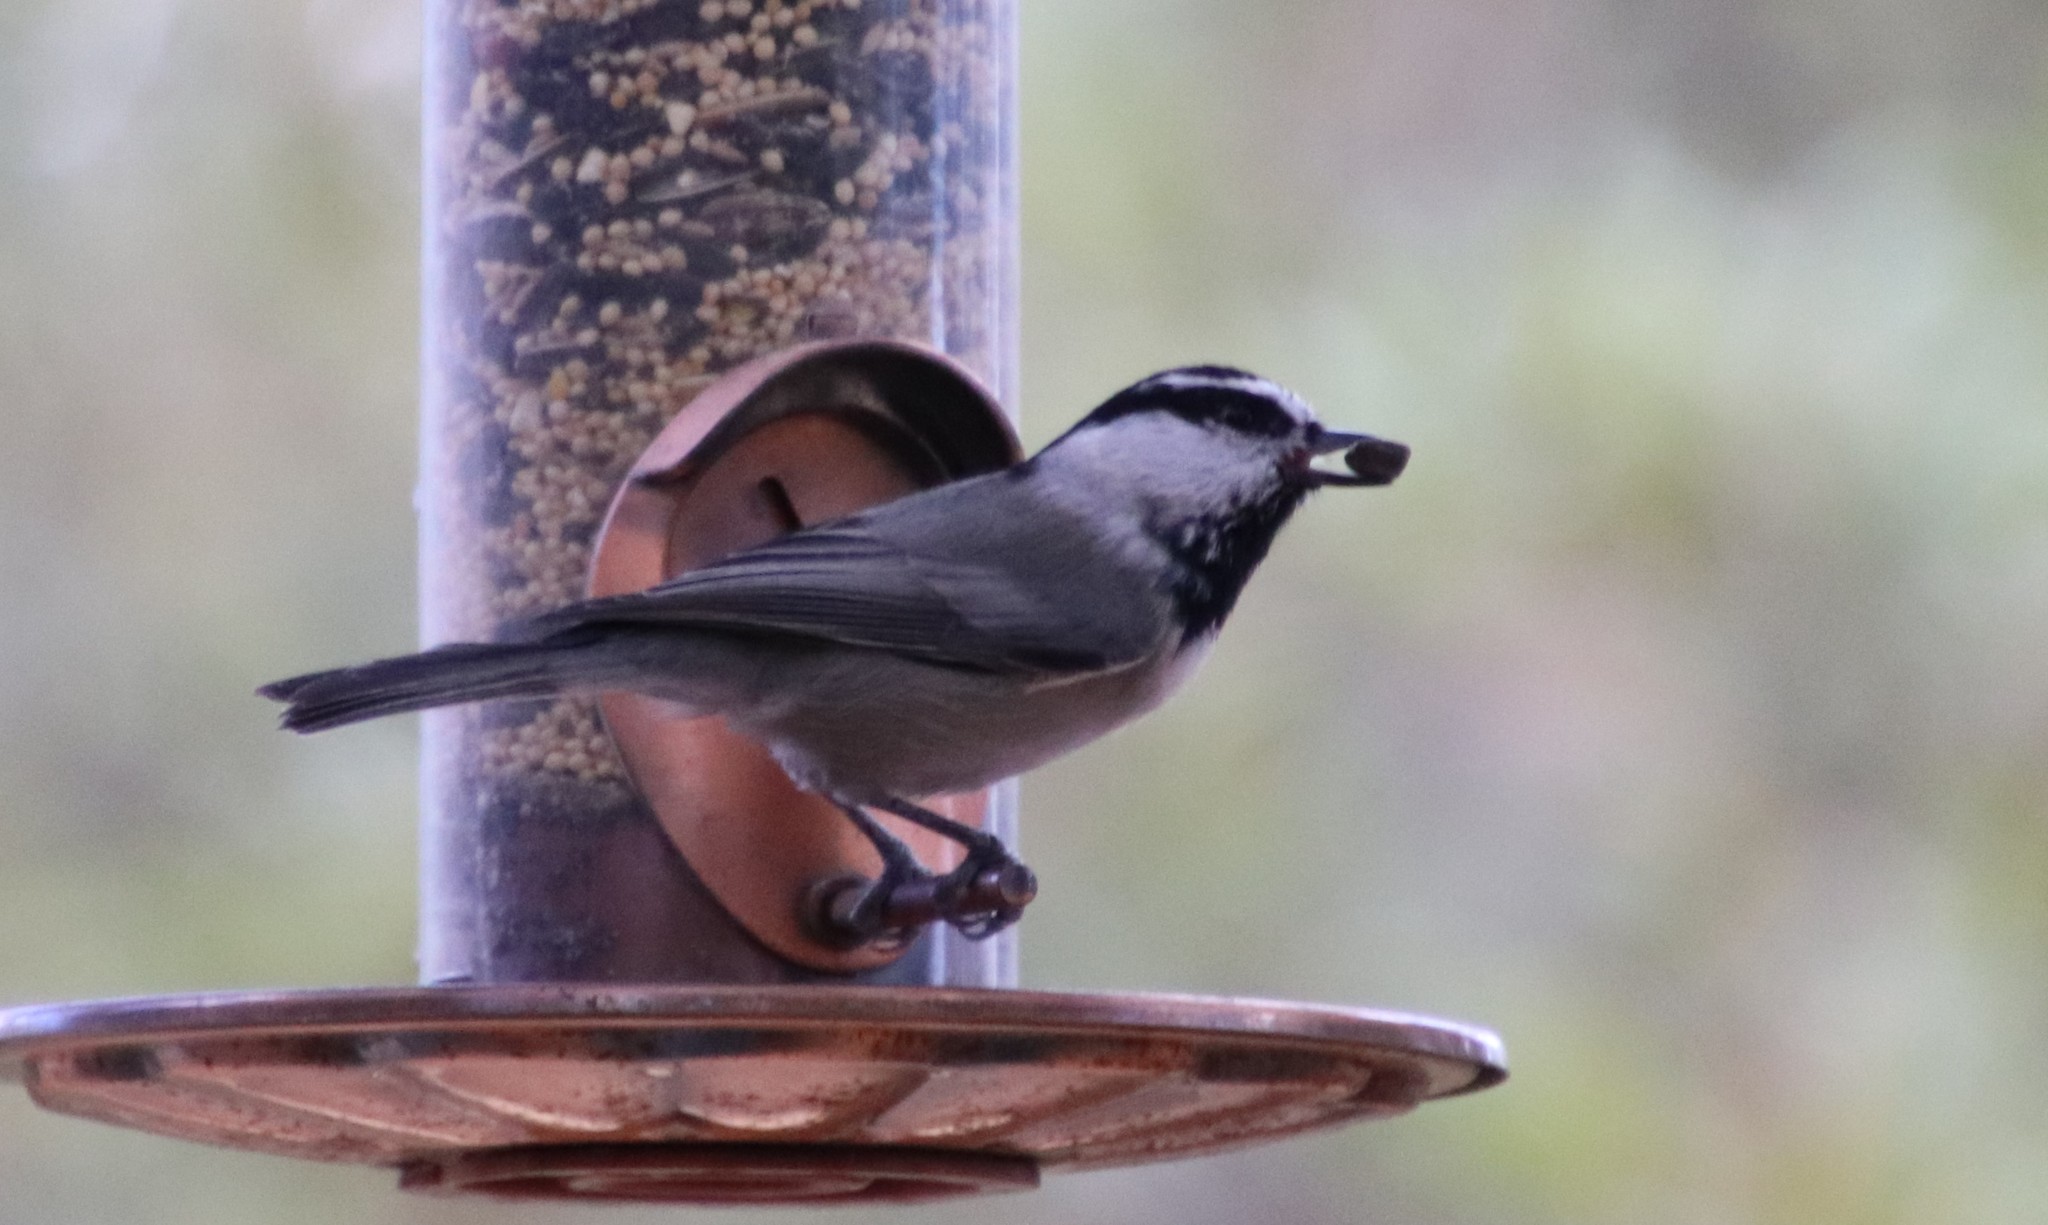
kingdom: Animalia
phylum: Chordata
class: Aves
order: Passeriformes
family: Paridae
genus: Poecile
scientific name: Poecile gambeli
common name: Mountain chickadee
